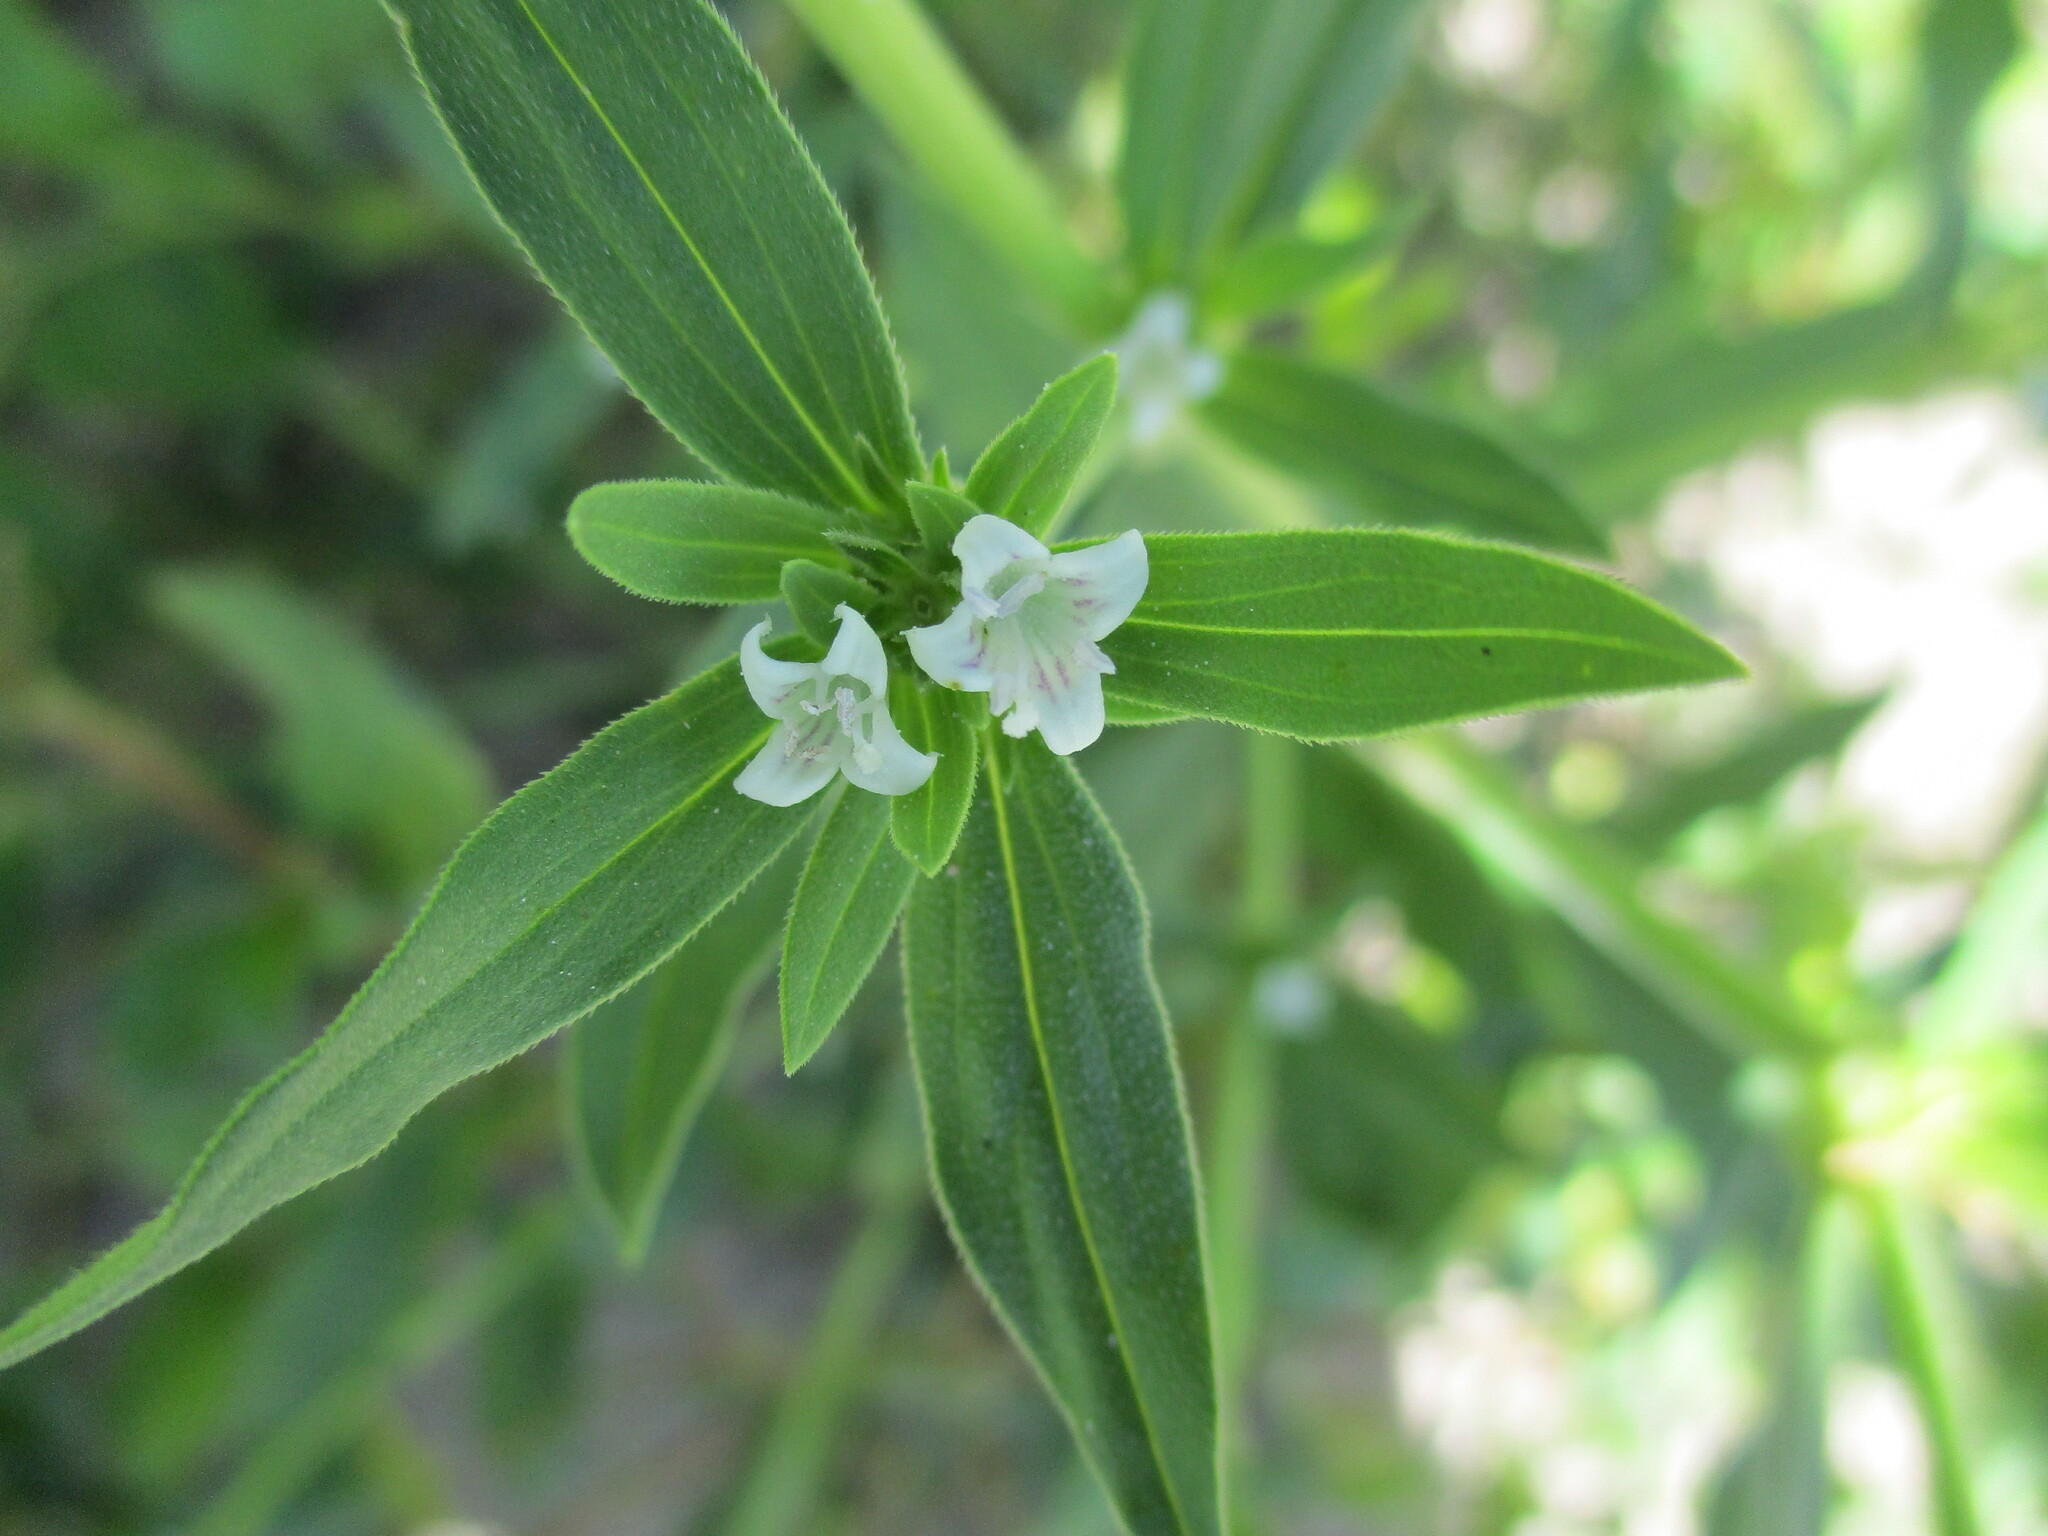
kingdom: Plantae
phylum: Tracheophyta
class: Magnoliopsida
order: Gentianales
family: Rubiaceae
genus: Spermacoce
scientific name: Spermacoce senensis
